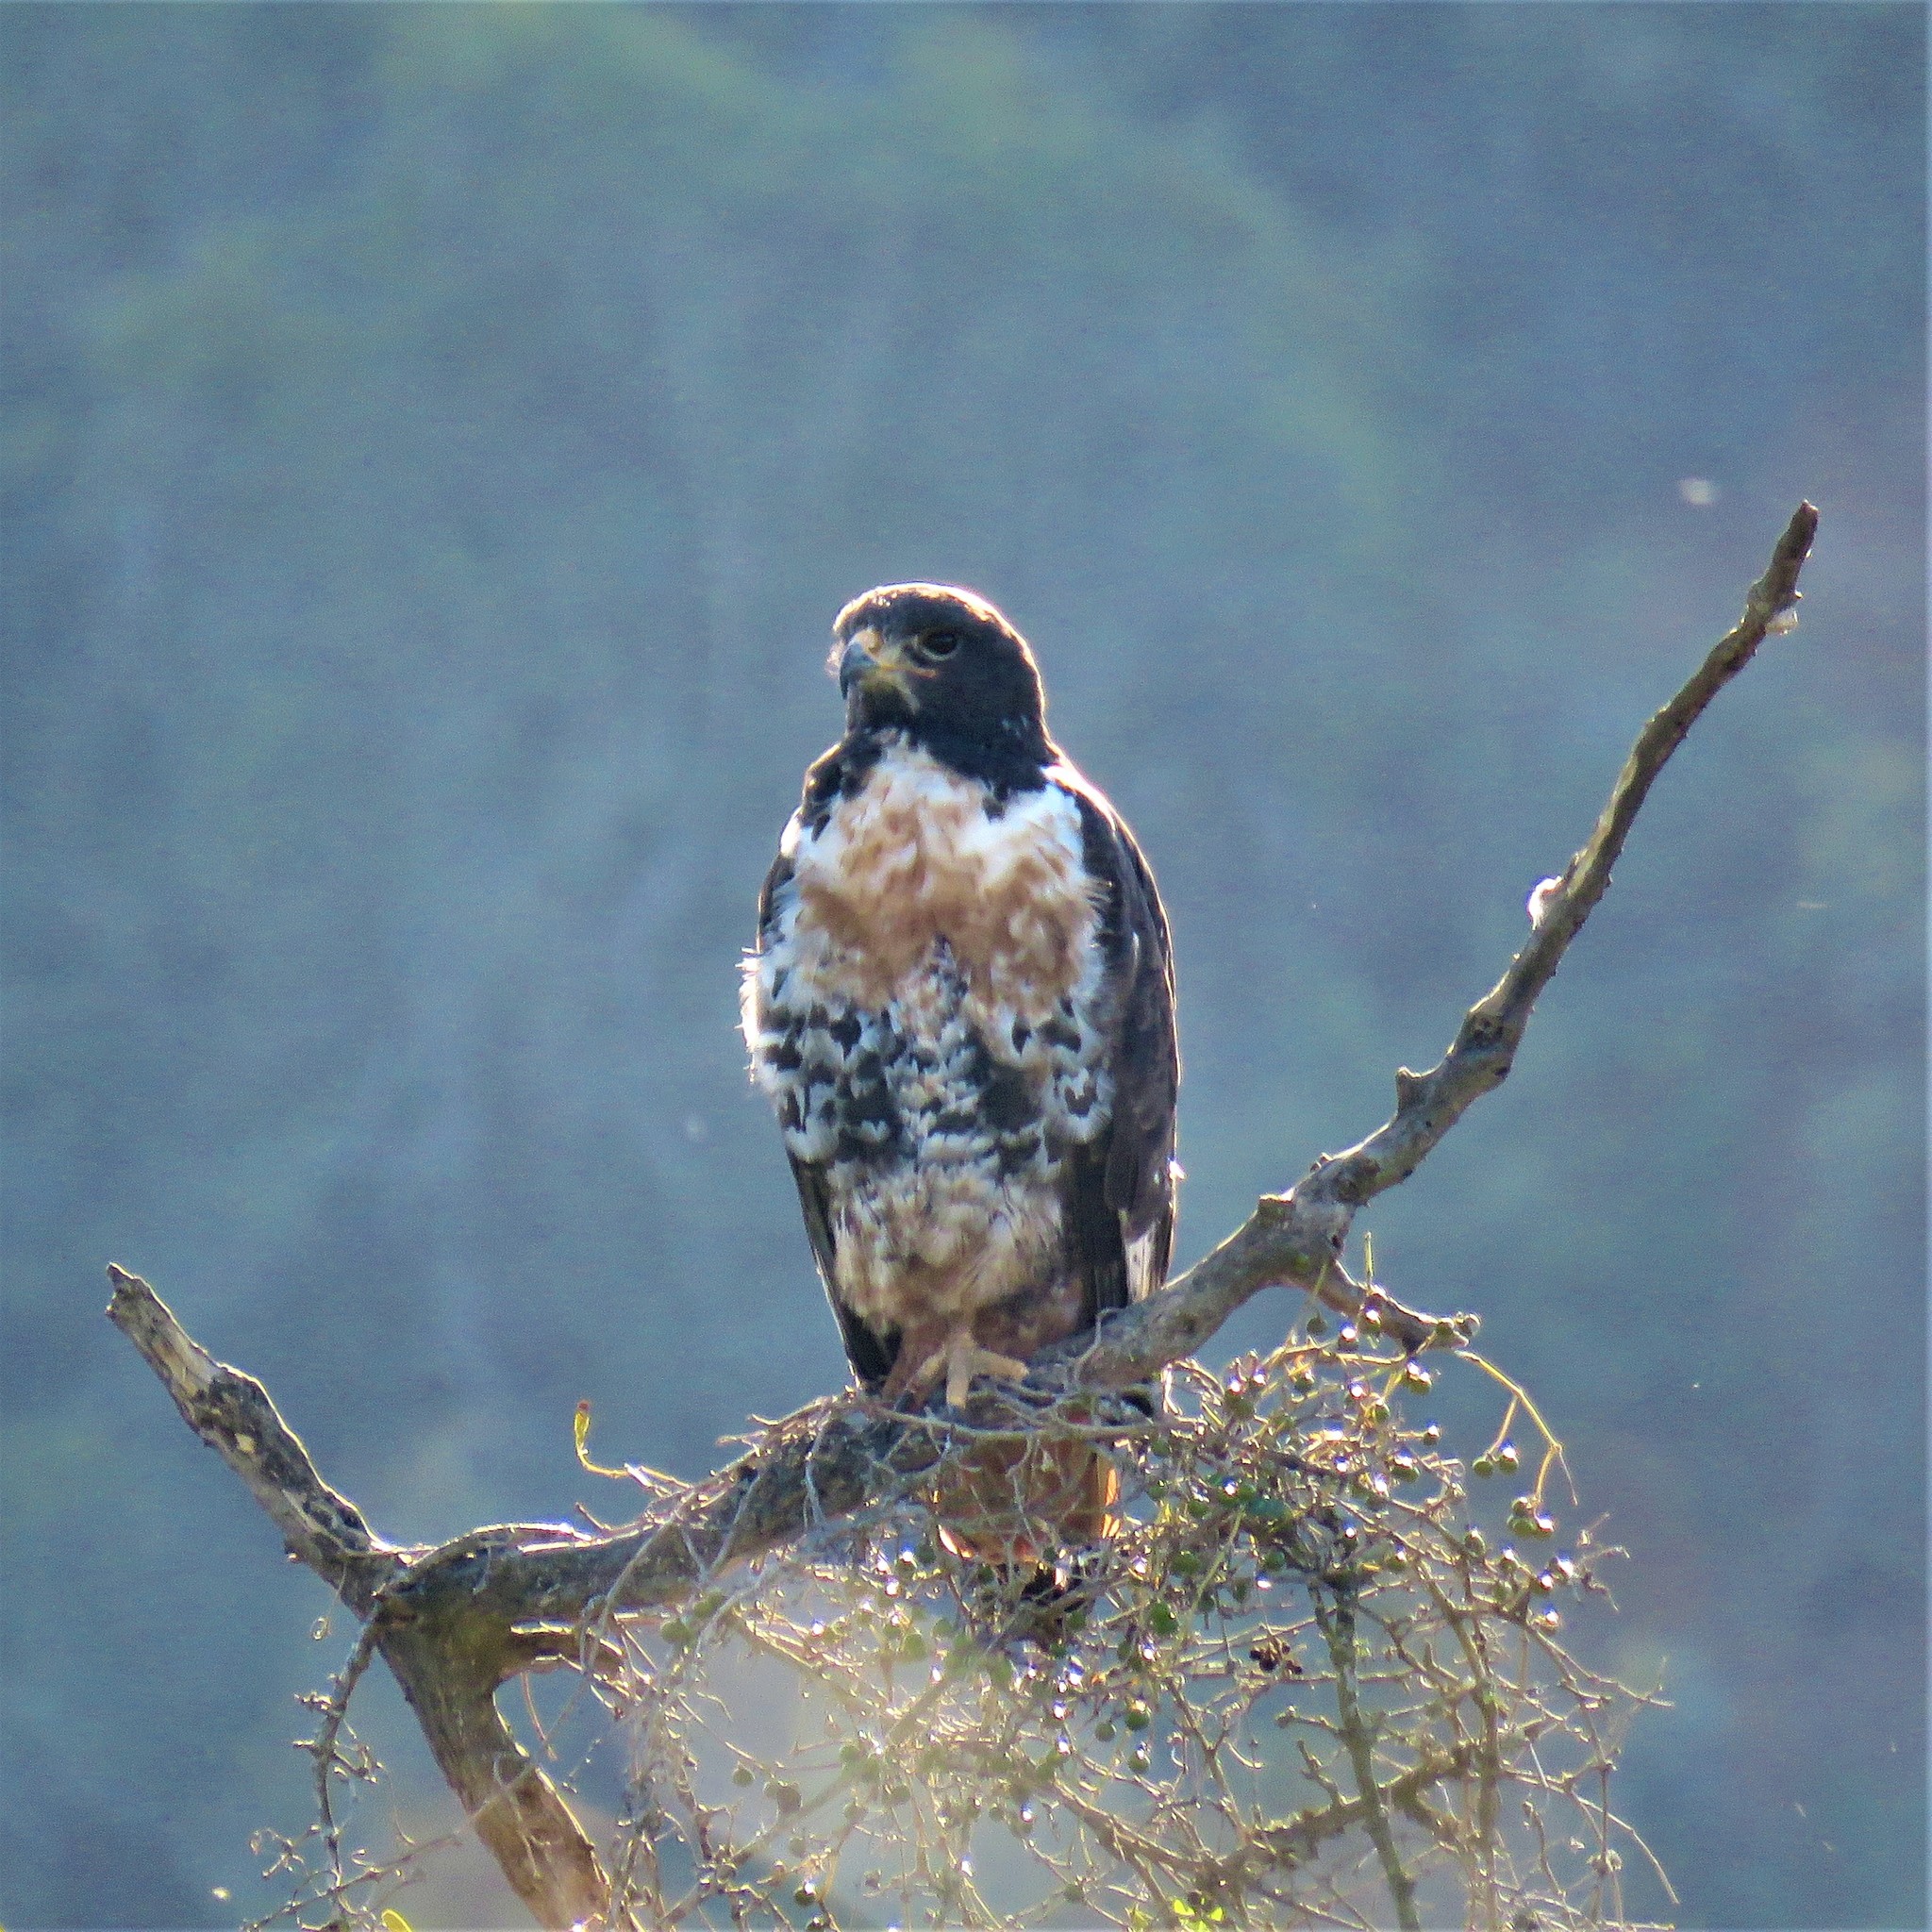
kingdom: Animalia
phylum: Chordata
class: Aves
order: Accipitriformes
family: Accipitridae
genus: Buteo
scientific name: Buteo rufofuscus
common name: Jackal buzzard
